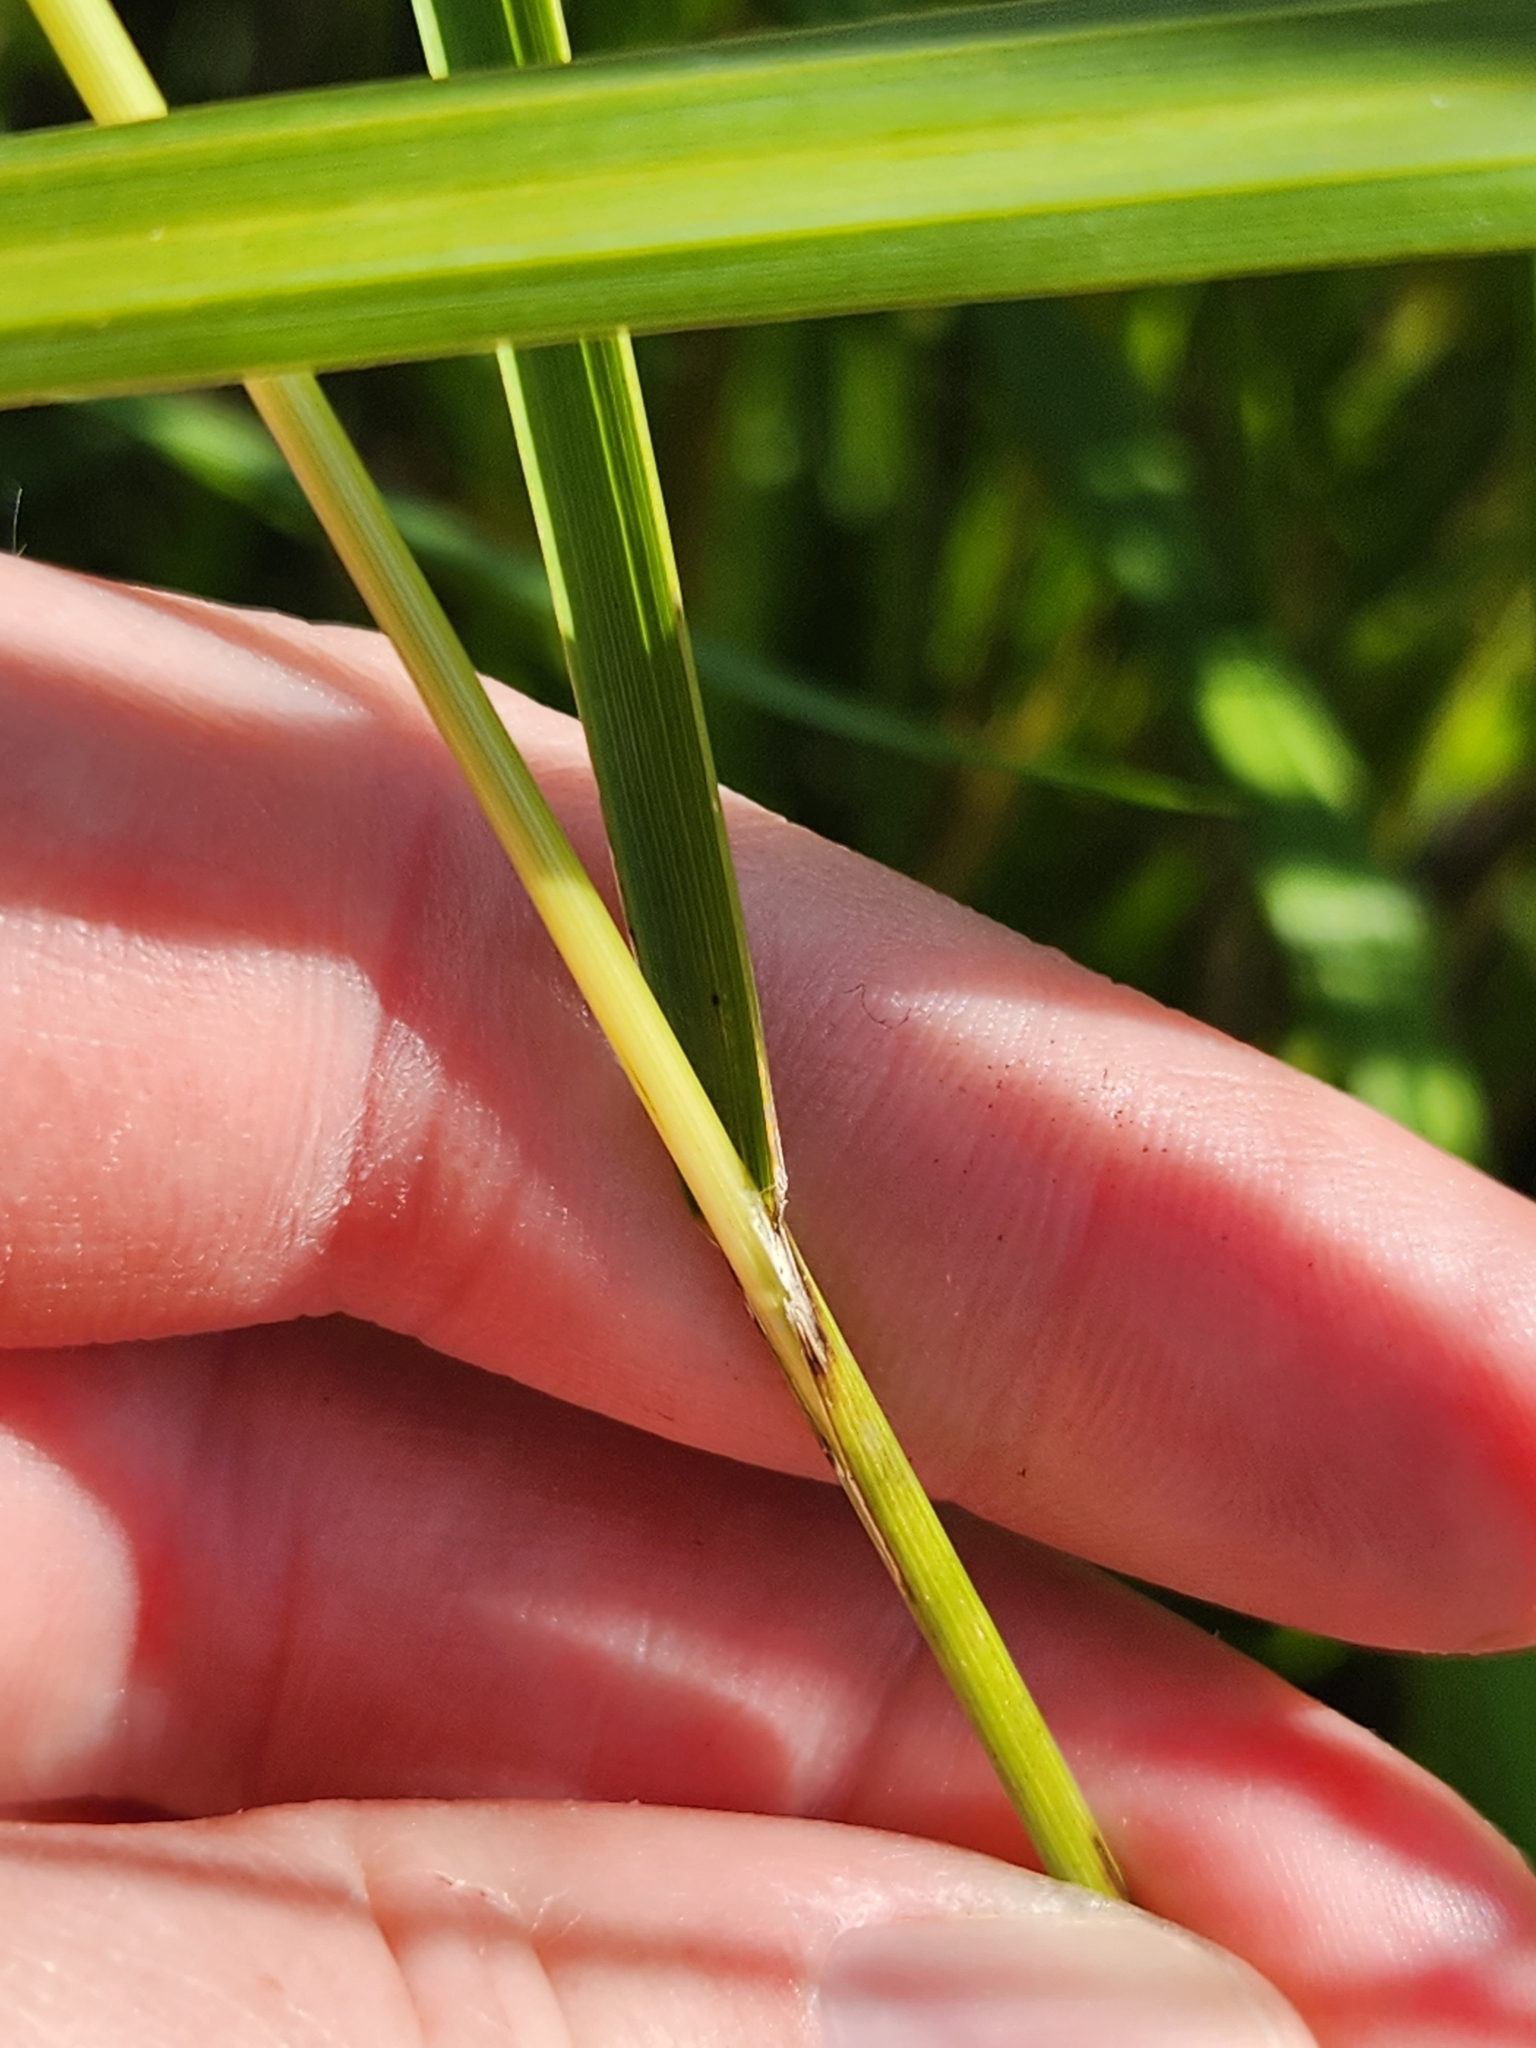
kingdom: Plantae
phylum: Tracheophyta
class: Liliopsida
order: Poales
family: Poaceae
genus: Glyceria
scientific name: Glyceria canadensis
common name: Canada mannagrass
